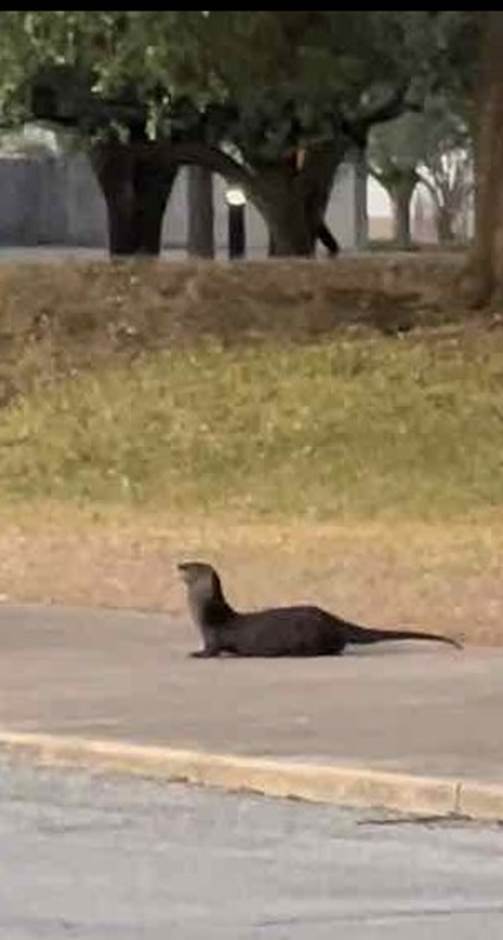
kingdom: Animalia
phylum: Chordata
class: Mammalia
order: Carnivora
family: Mustelidae
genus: Lontra
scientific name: Lontra canadensis
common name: North american river otter
